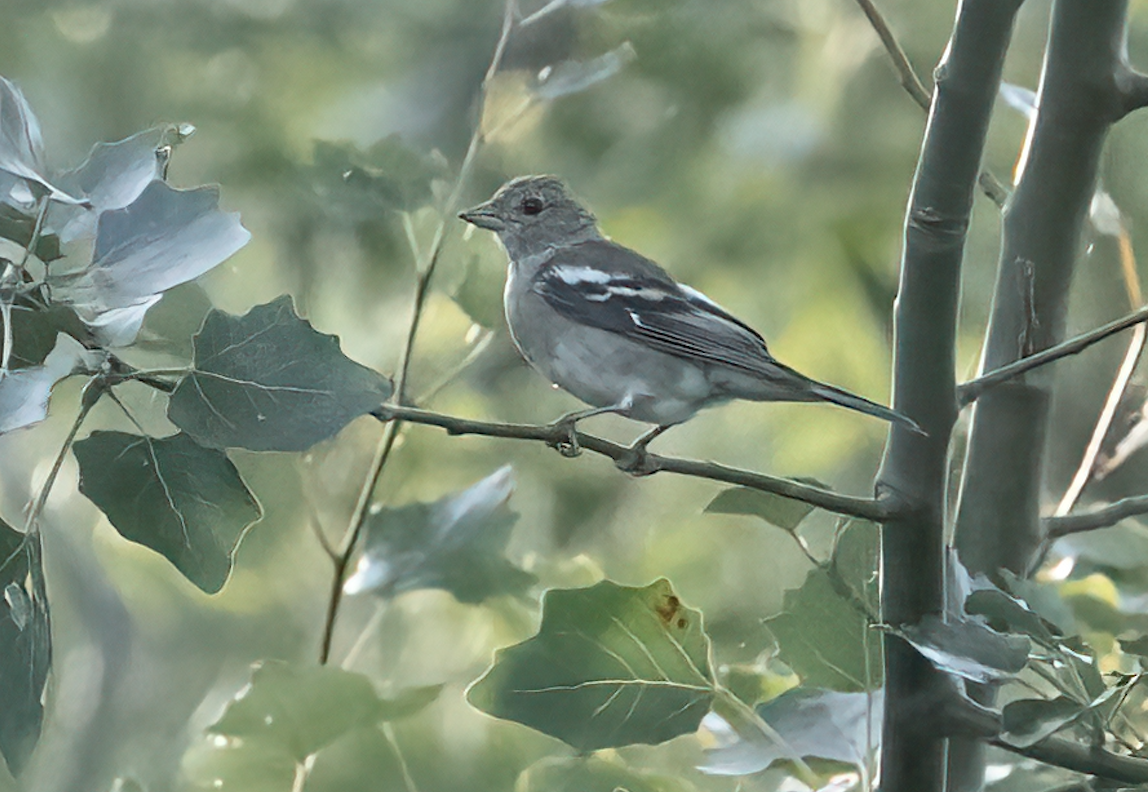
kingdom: Animalia
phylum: Chordata
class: Aves
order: Passeriformes
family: Fringillidae
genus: Fringilla
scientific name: Fringilla coelebs
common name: Common chaffinch
